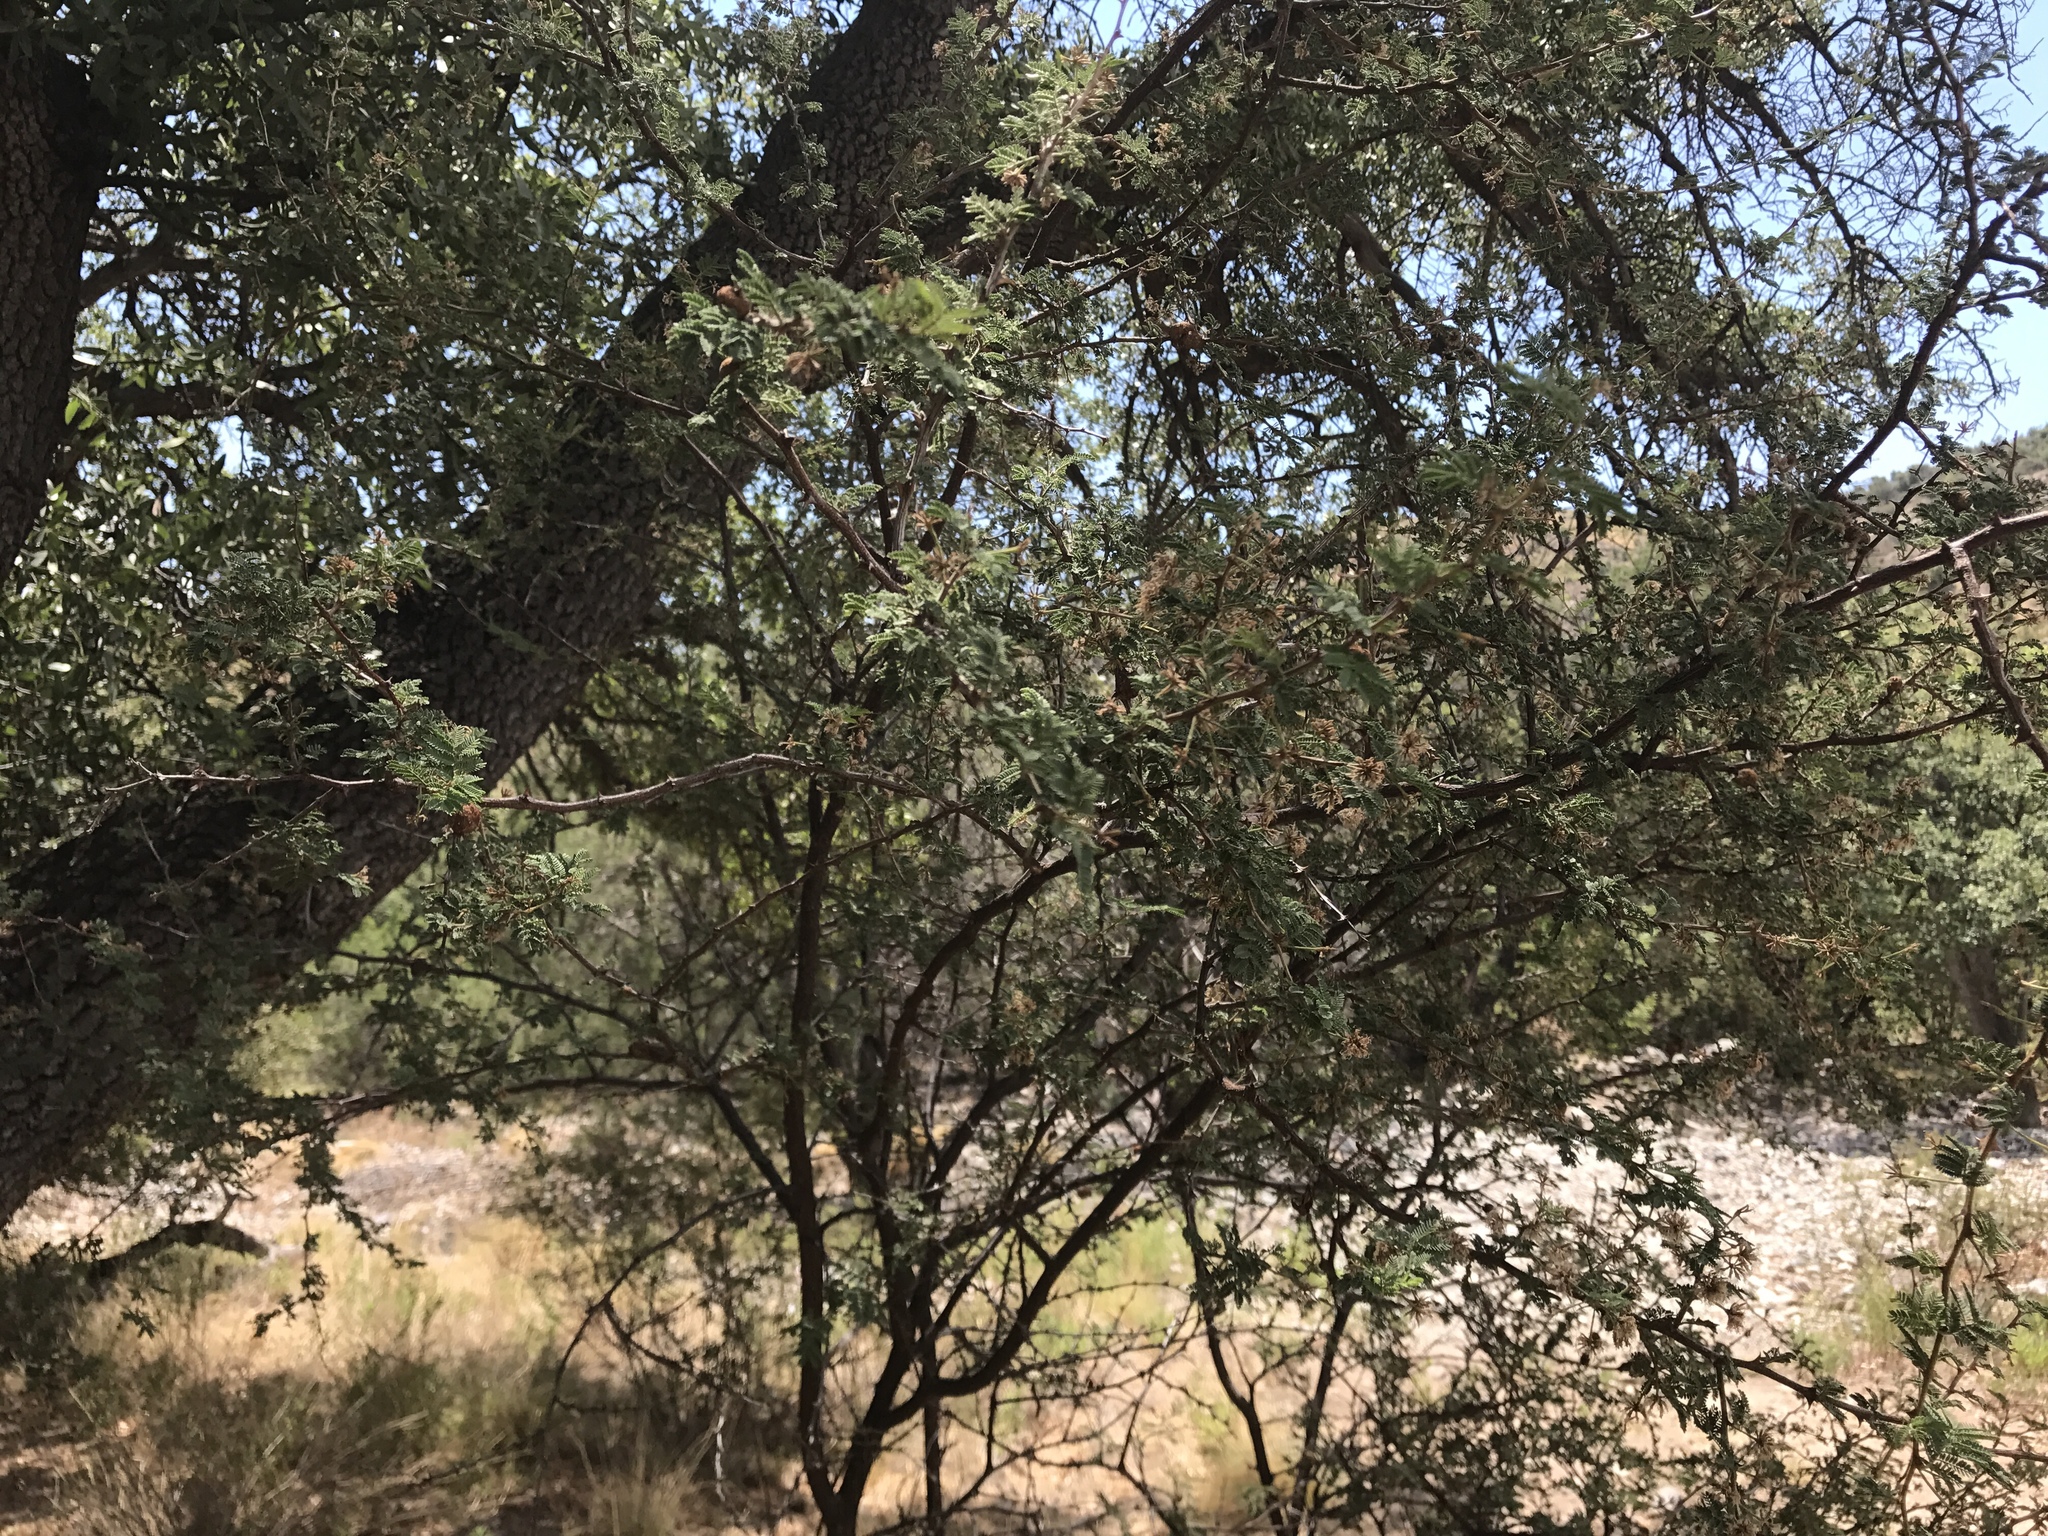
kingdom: Plantae
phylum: Tracheophyta
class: Magnoliopsida
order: Fabales
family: Fabaceae
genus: Mimosa
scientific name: Mimosa aculeaticarpa
